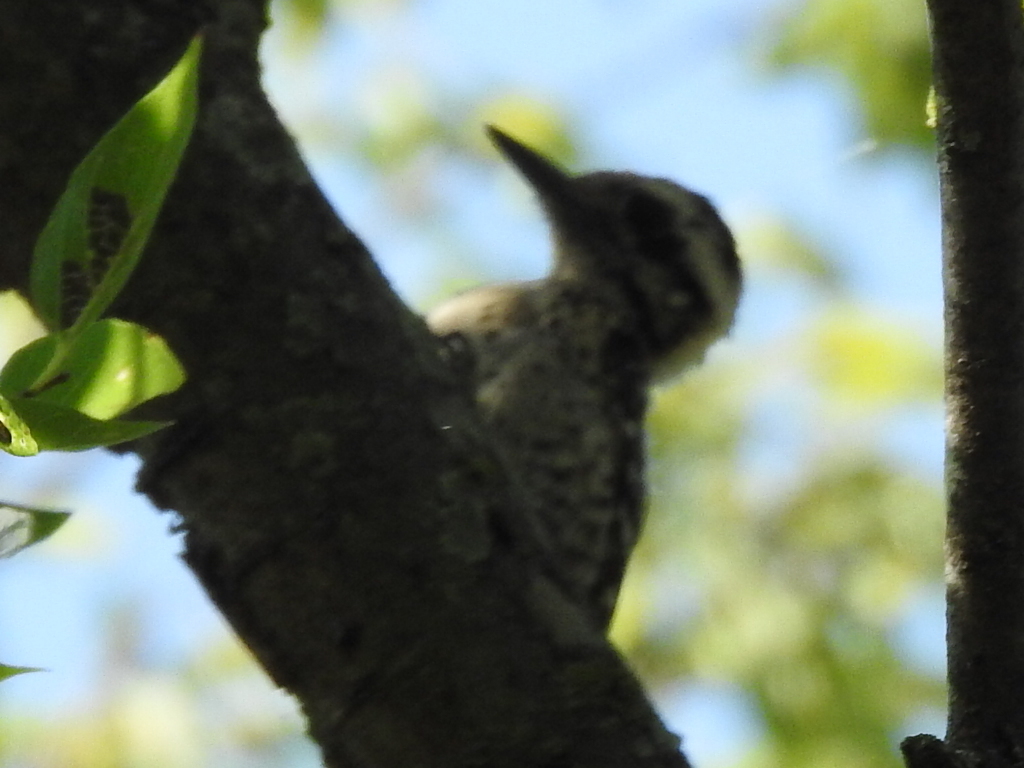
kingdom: Animalia
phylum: Chordata
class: Aves
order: Piciformes
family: Picidae
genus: Dryobates
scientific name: Dryobates scalaris
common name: Ladder-backed woodpecker
